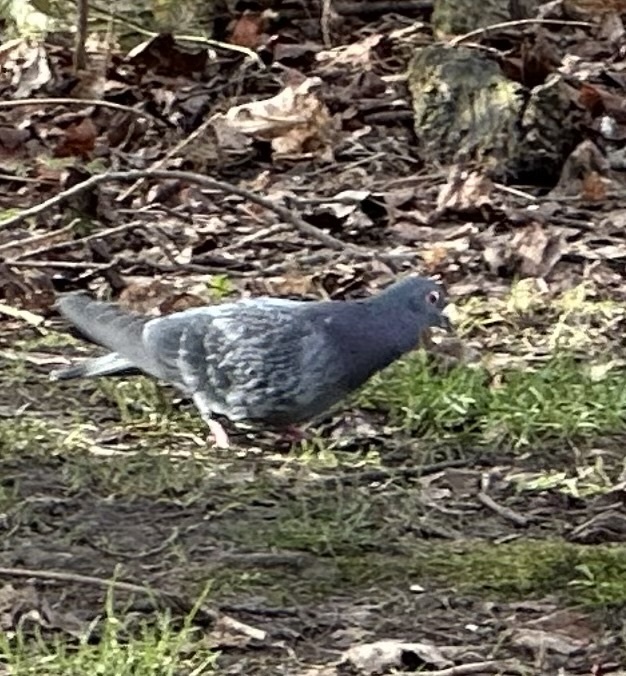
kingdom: Animalia
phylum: Chordata
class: Aves
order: Columbiformes
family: Columbidae
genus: Columba
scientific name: Columba livia
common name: Rock pigeon
